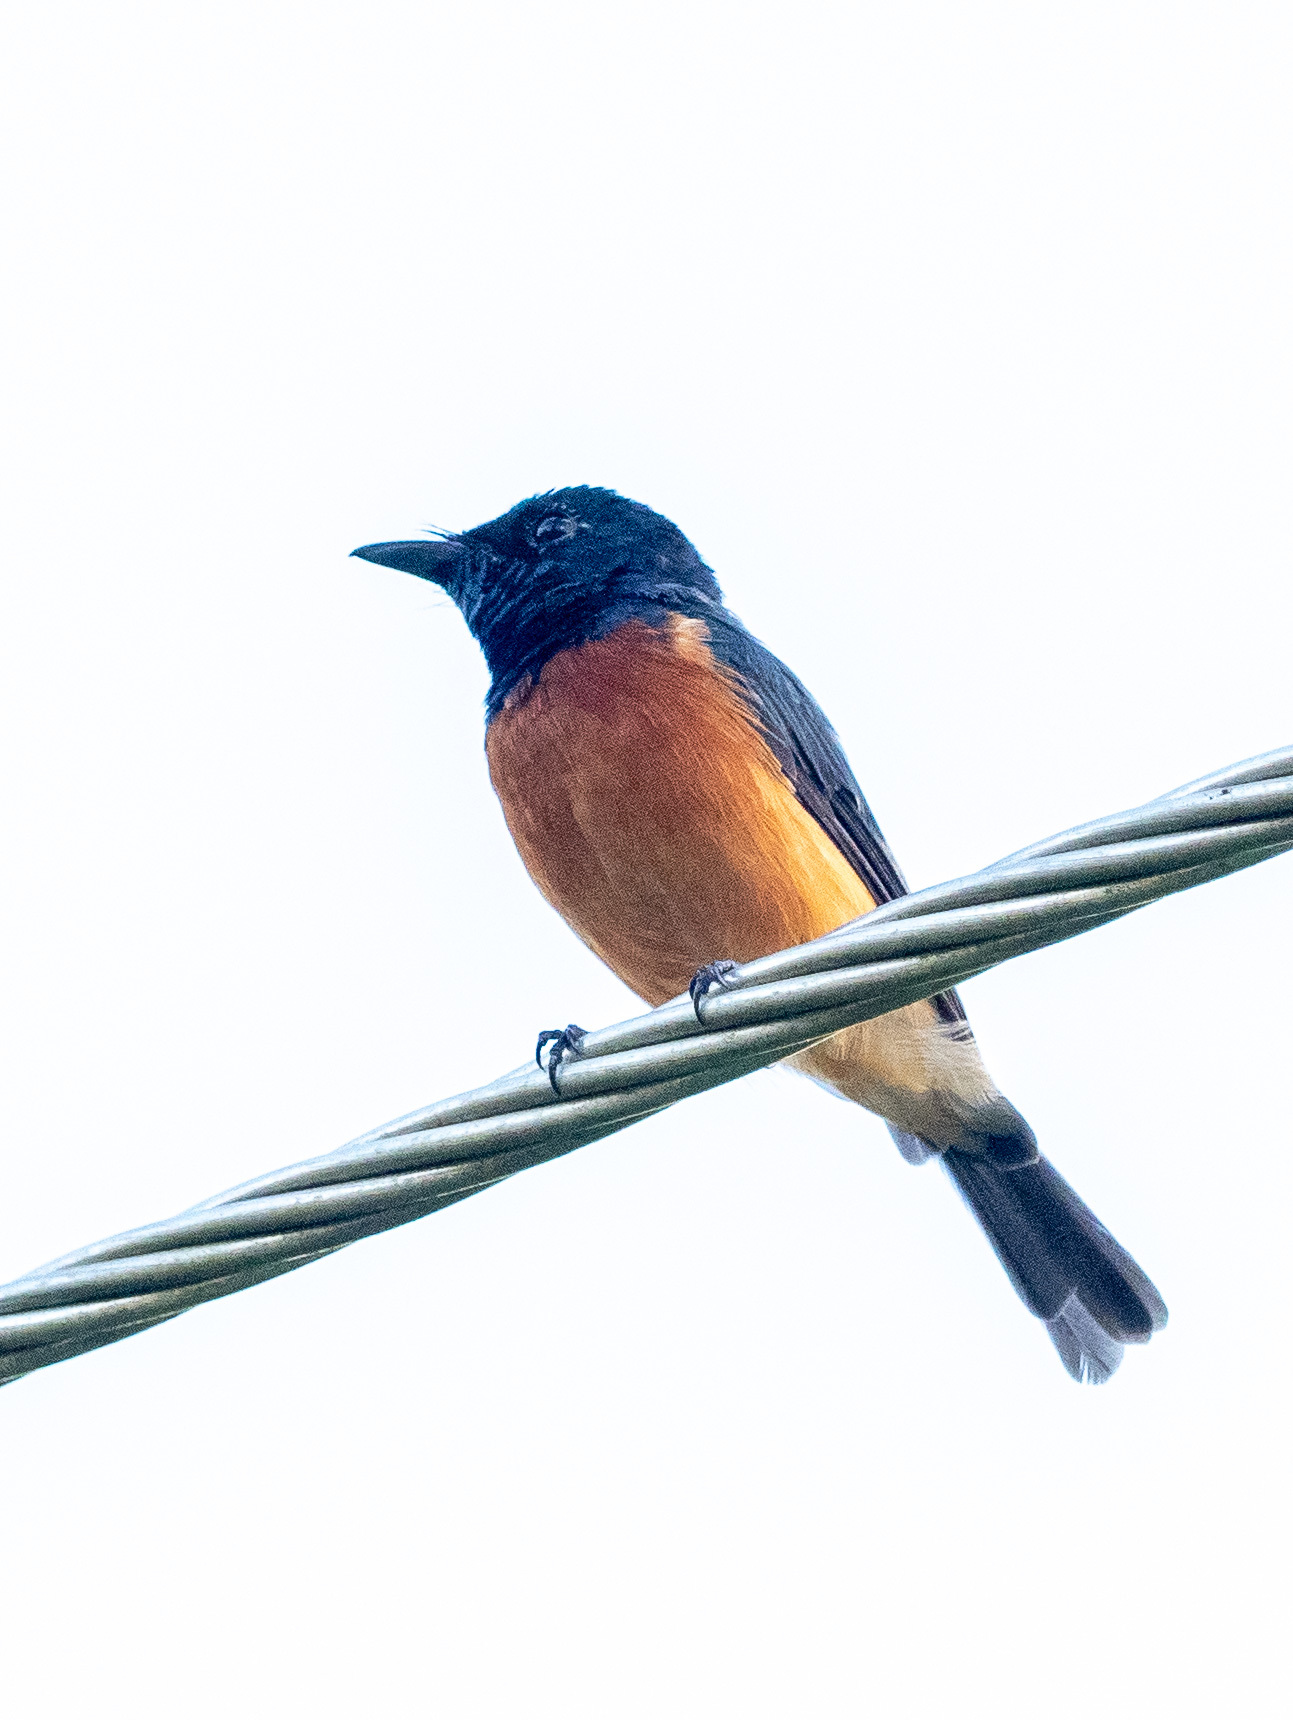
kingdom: Animalia
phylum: Chordata
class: Aves
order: Passeriformes
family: Monarchidae
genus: Myiagra
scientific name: Myiagra vanikorensis
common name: Vanikoro flycatcher
